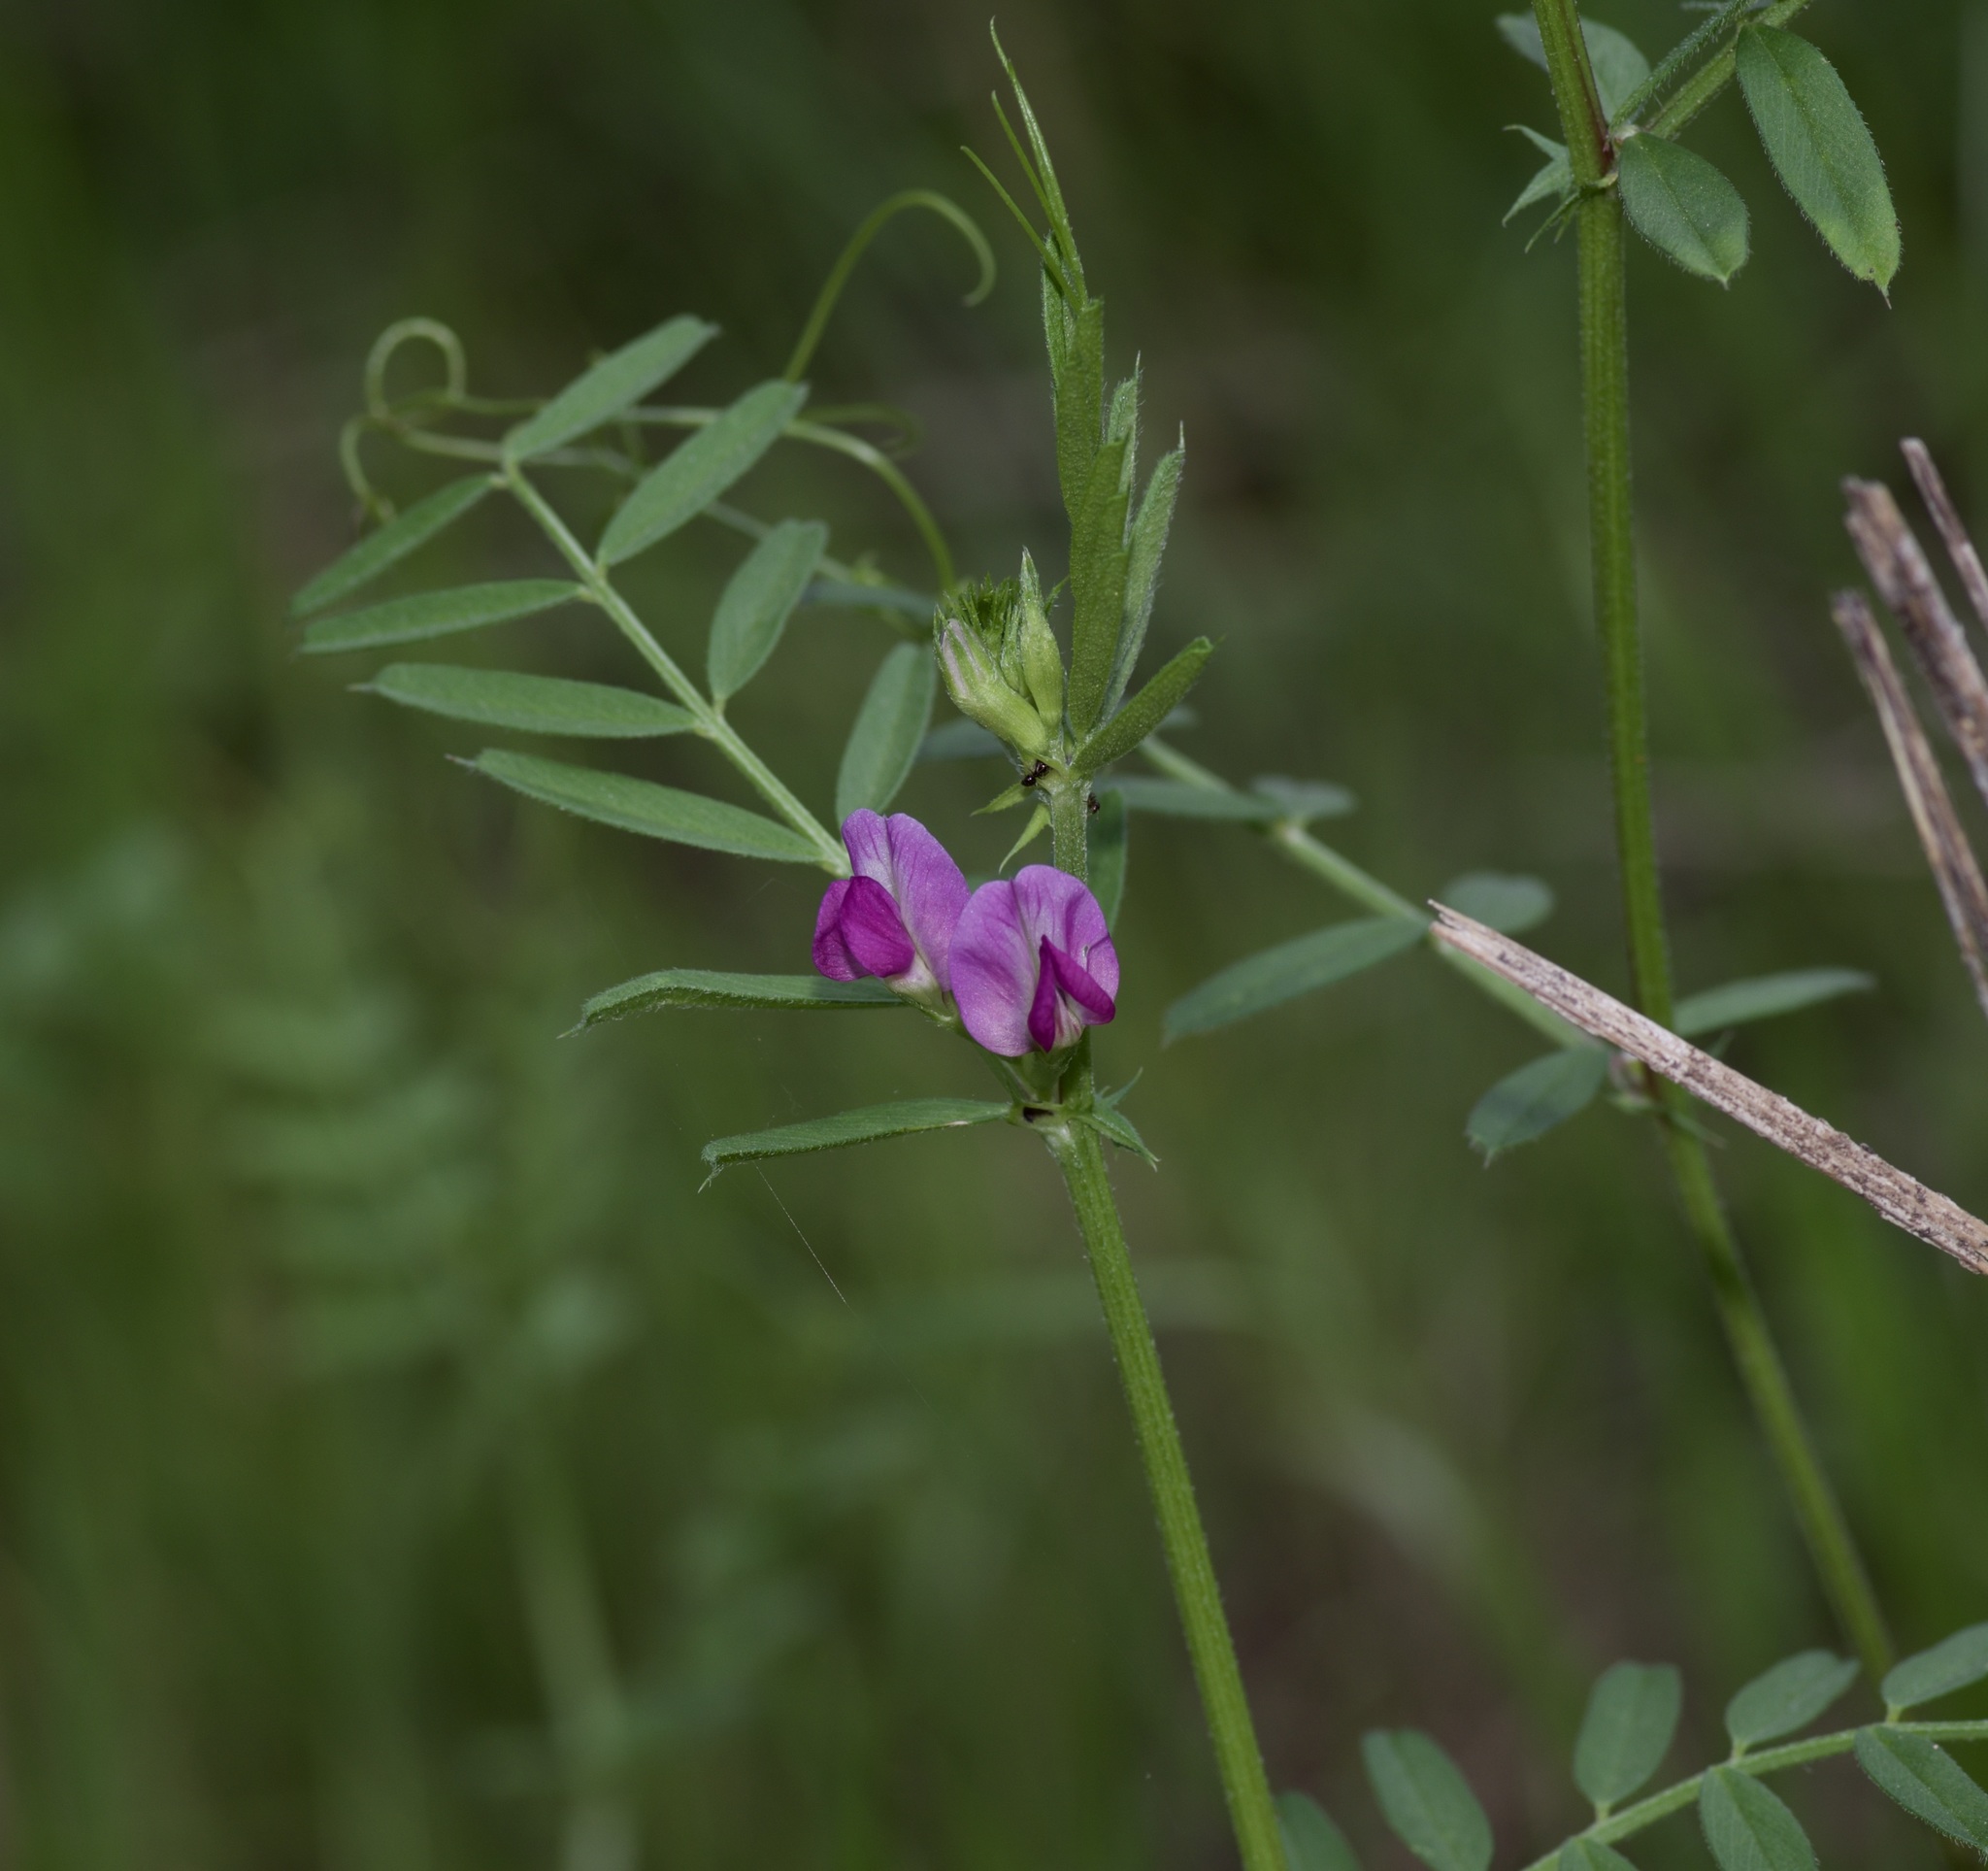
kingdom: Plantae
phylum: Tracheophyta
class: Magnoliopsida
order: Fabales
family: Fabaceae
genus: Vicia
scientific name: Vicia sativa
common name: Garden vetch
